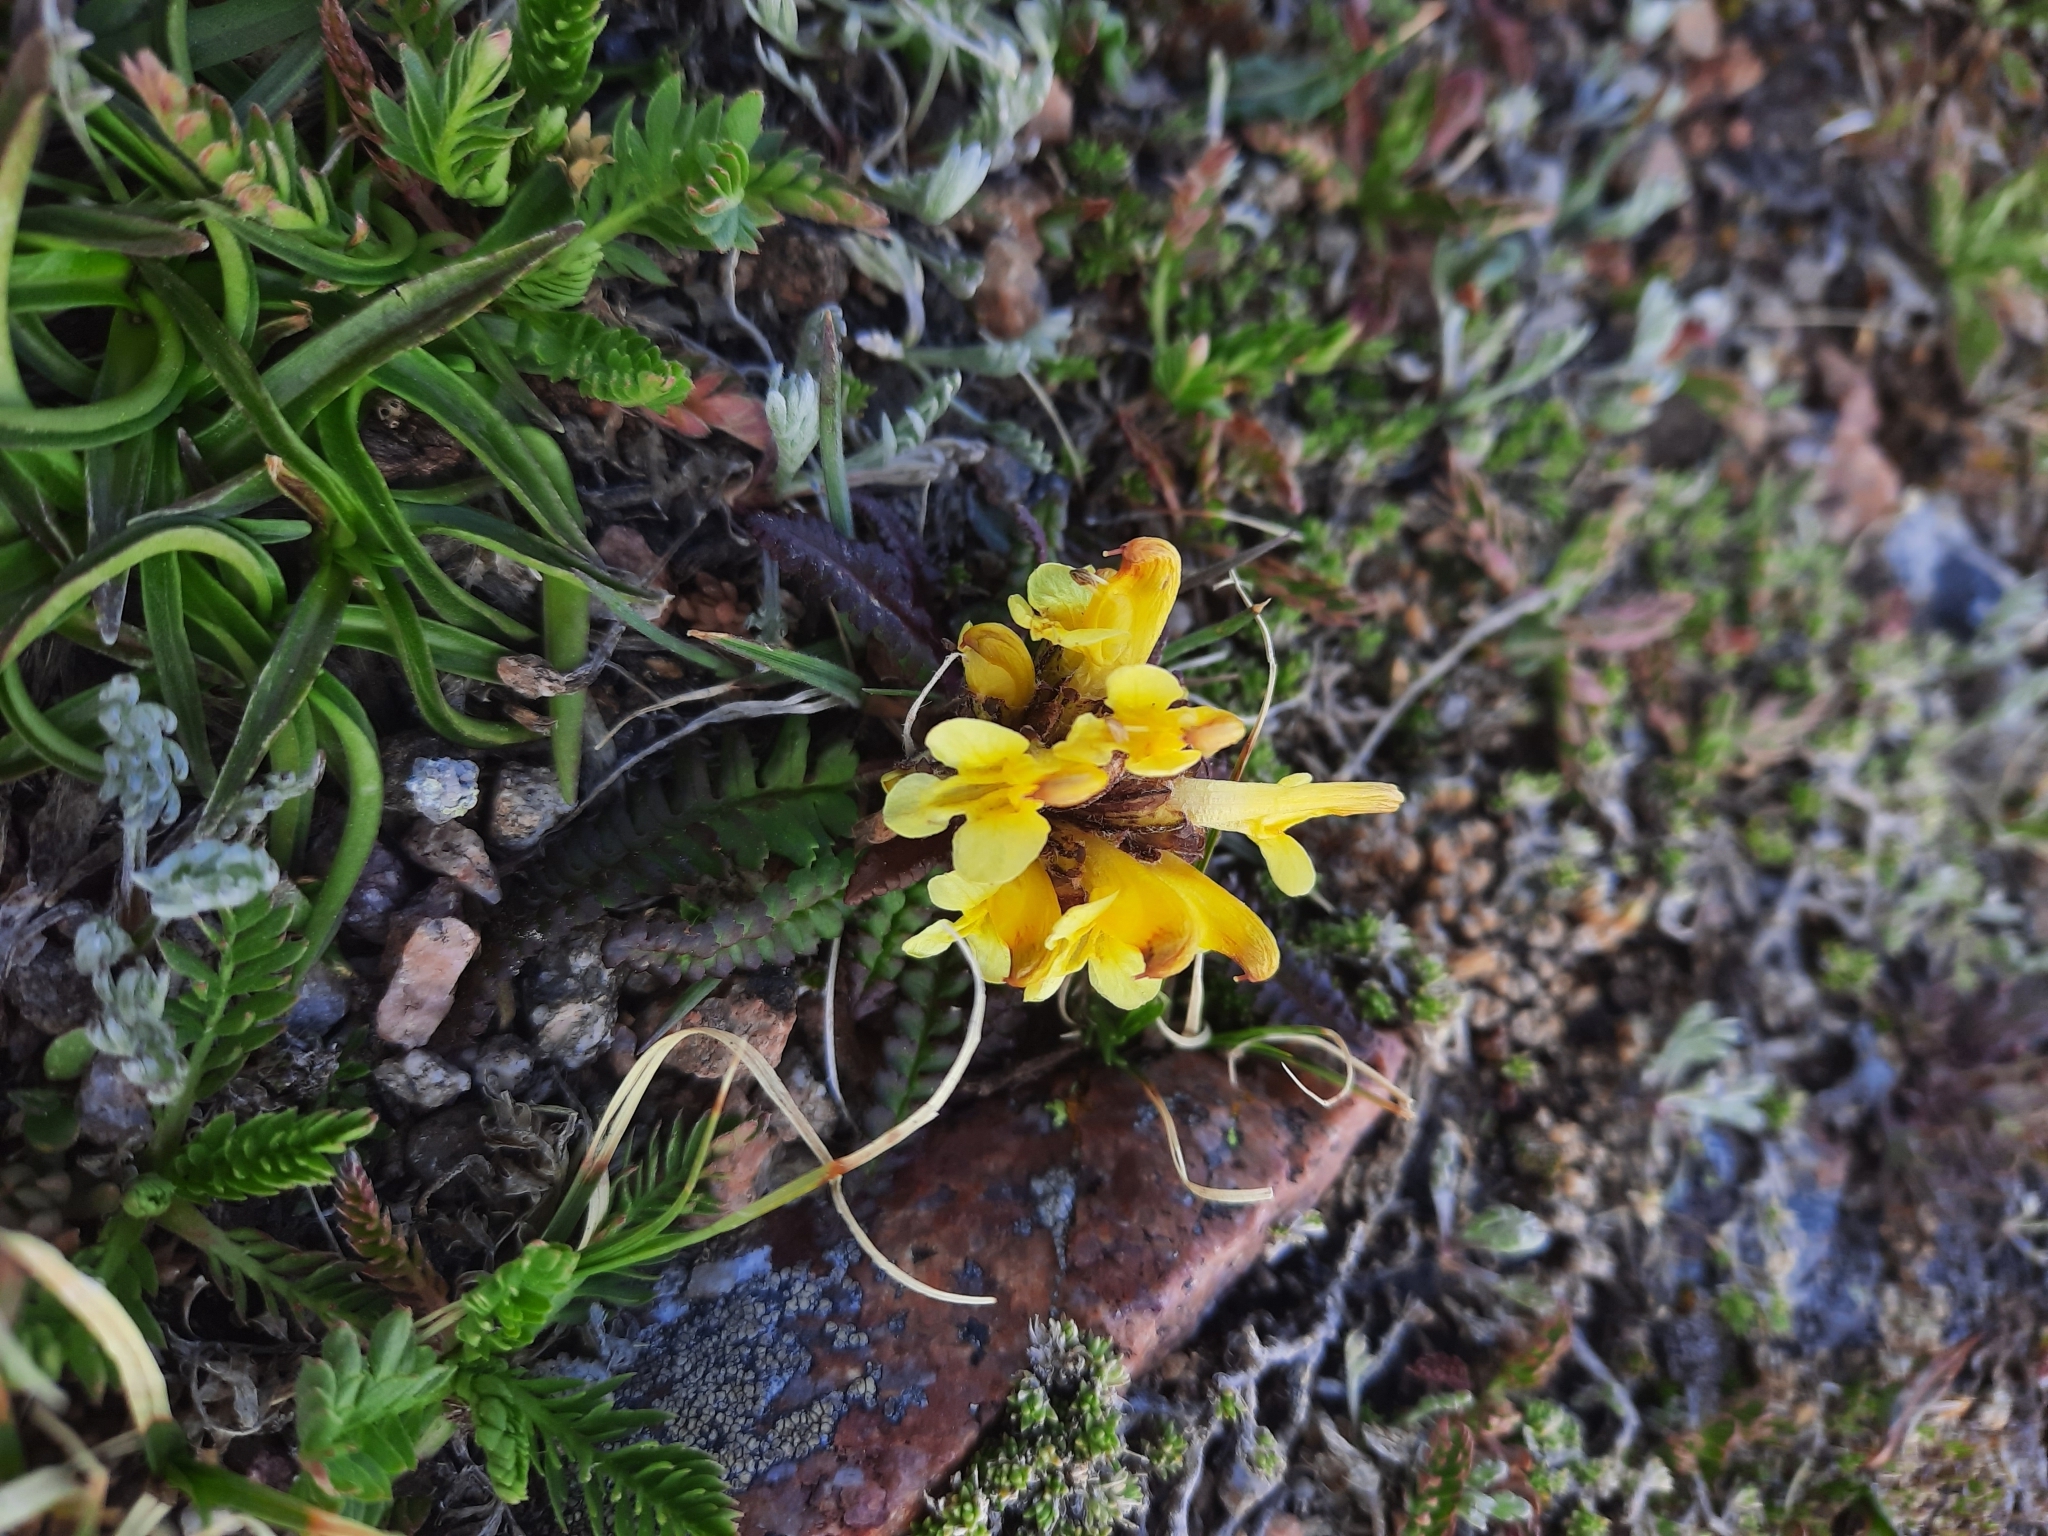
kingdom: Plantae
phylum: Tracheophyta
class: Magnoliopsida
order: Lamiales
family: Orobanchaceae
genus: Pedicularis
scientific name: Pedicularis oederi
